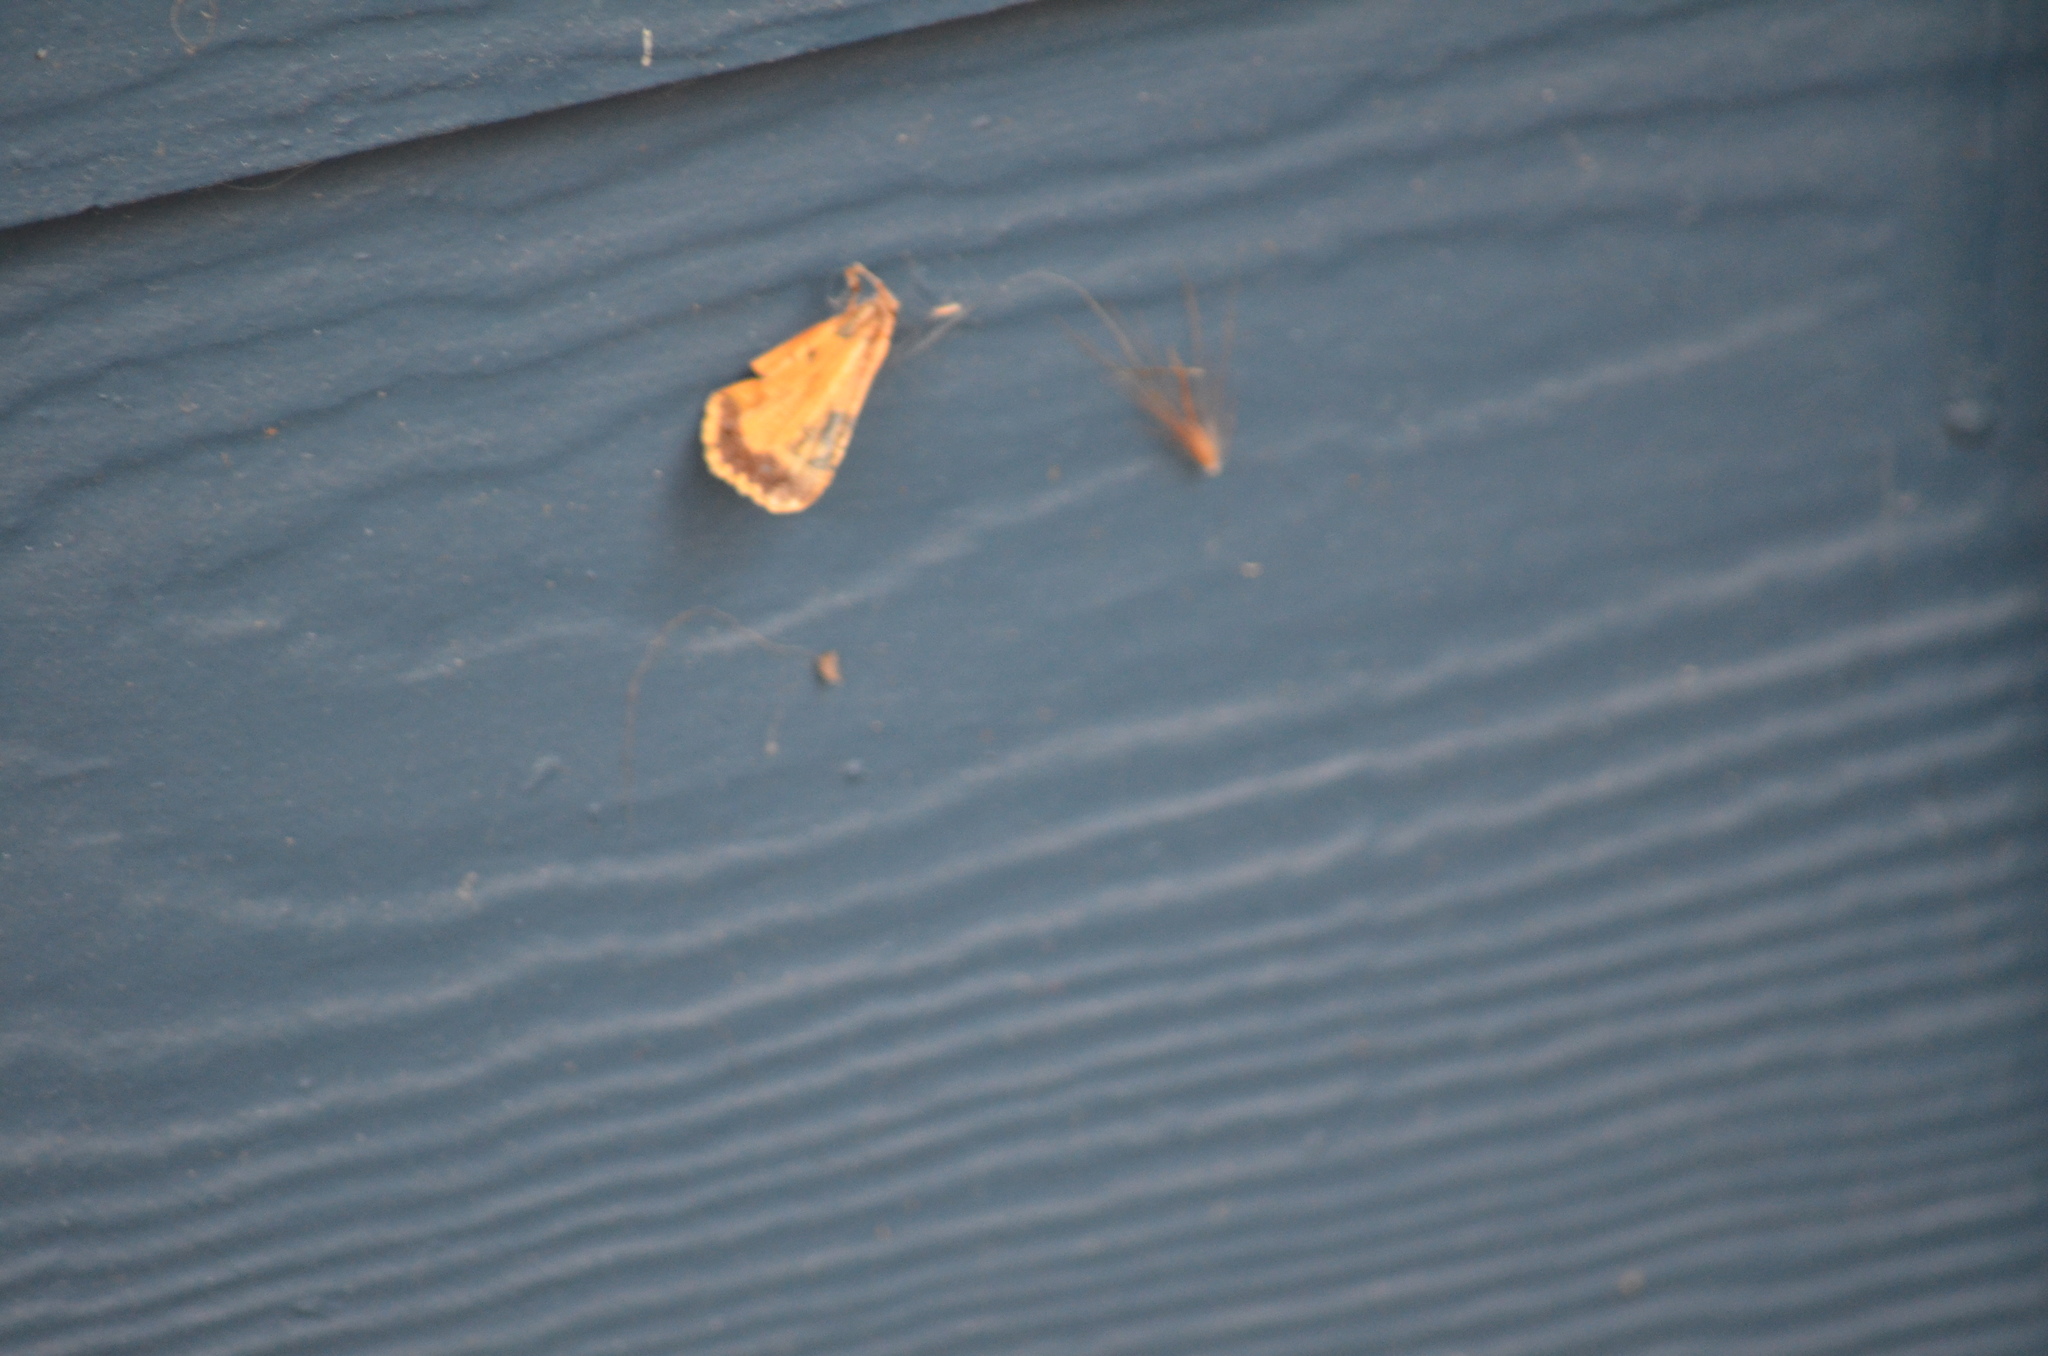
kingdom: Animalia
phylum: Arthropoda
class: Insecta
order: Lepidoptera
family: Noctuidae
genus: Noctua
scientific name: Noctua pronuba
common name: Large yellow underwing
